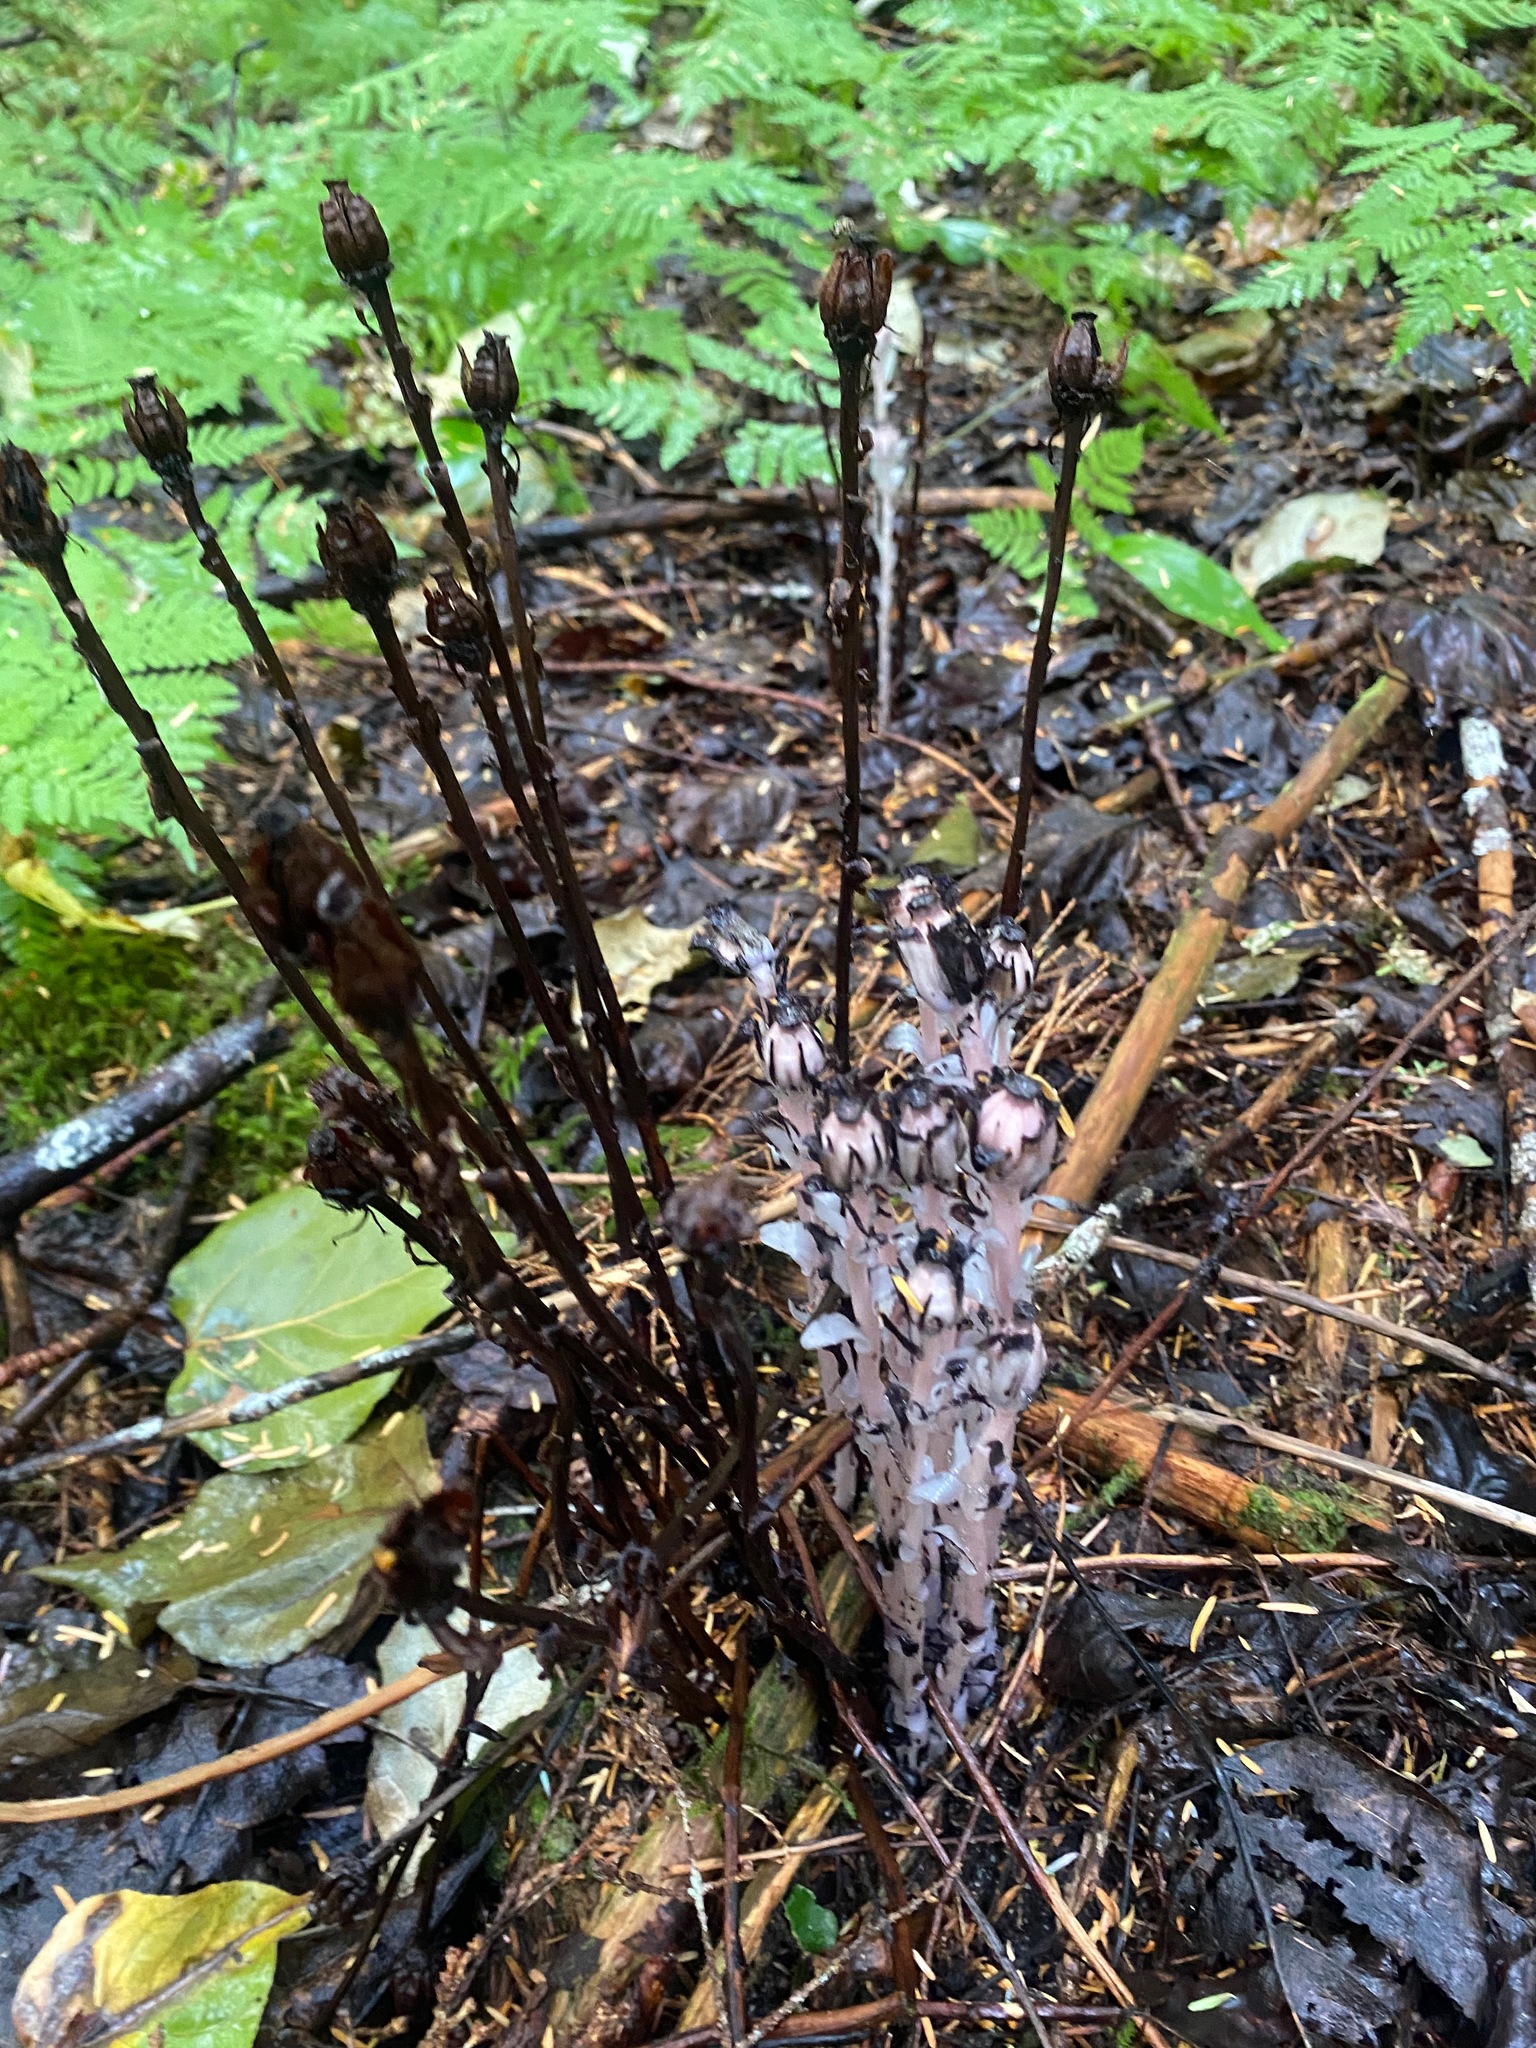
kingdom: Plantae
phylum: Tracheophyta
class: Magnoliopsida
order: Ericales
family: Ericaceae
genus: Monotropa
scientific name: Monotropa uniflora
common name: Convulsion root
